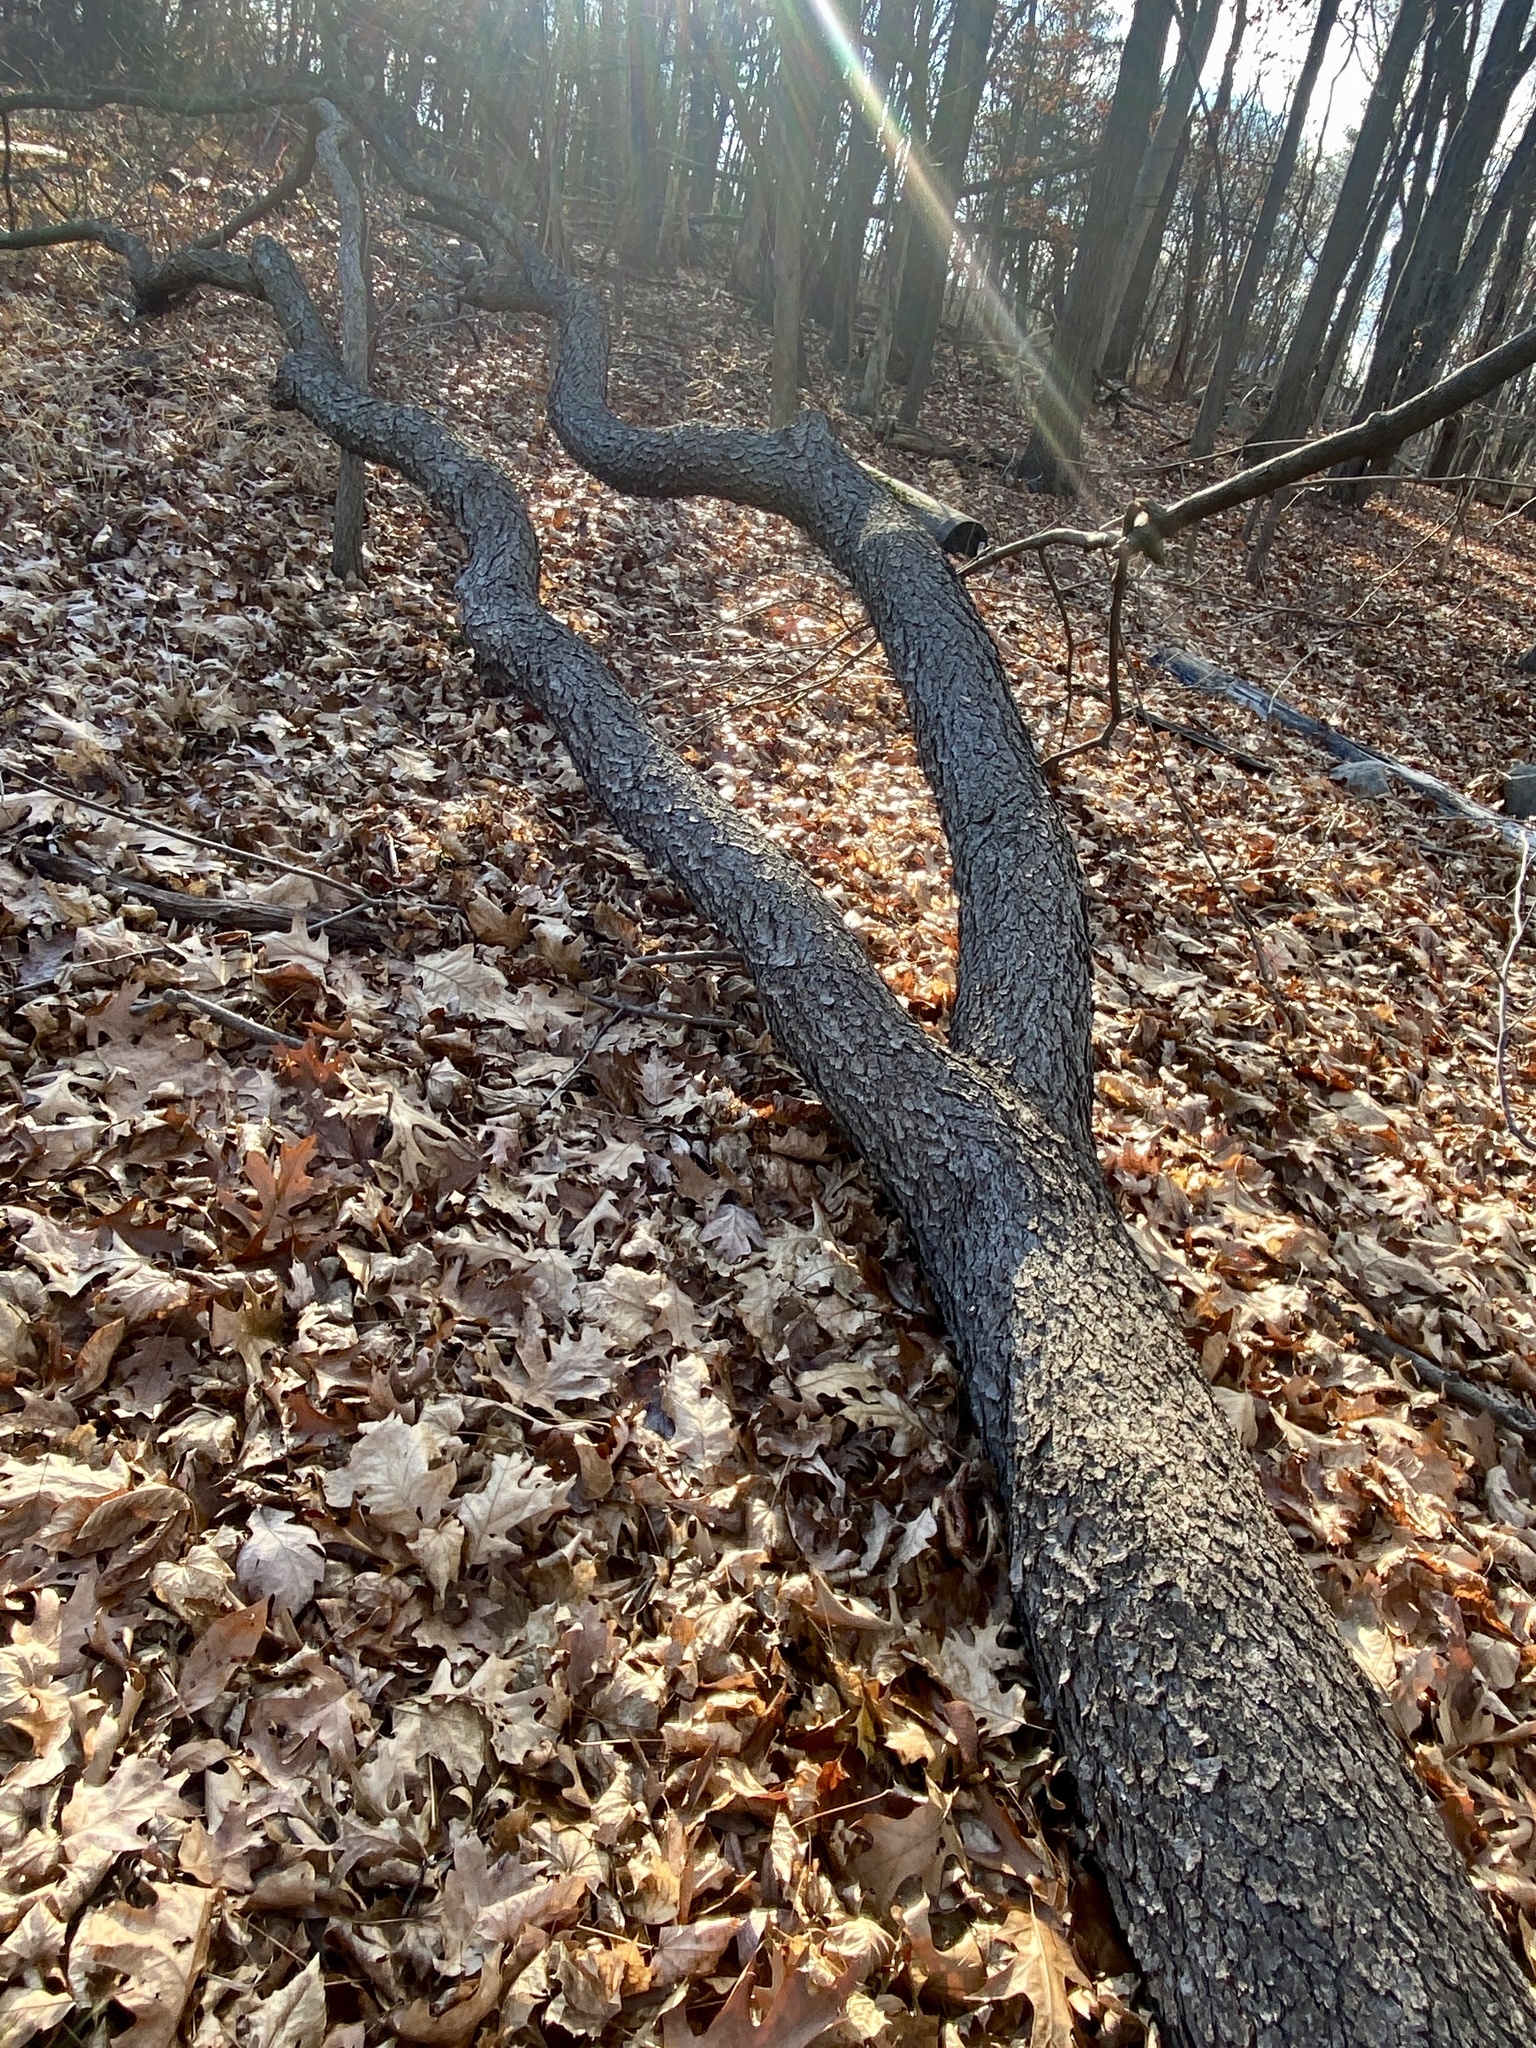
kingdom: Plantae
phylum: Tracheophyta
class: Magnoliopsida
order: Rosales
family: Rosaceae
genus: Prunus
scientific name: Prunus serotina
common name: Black cherry
